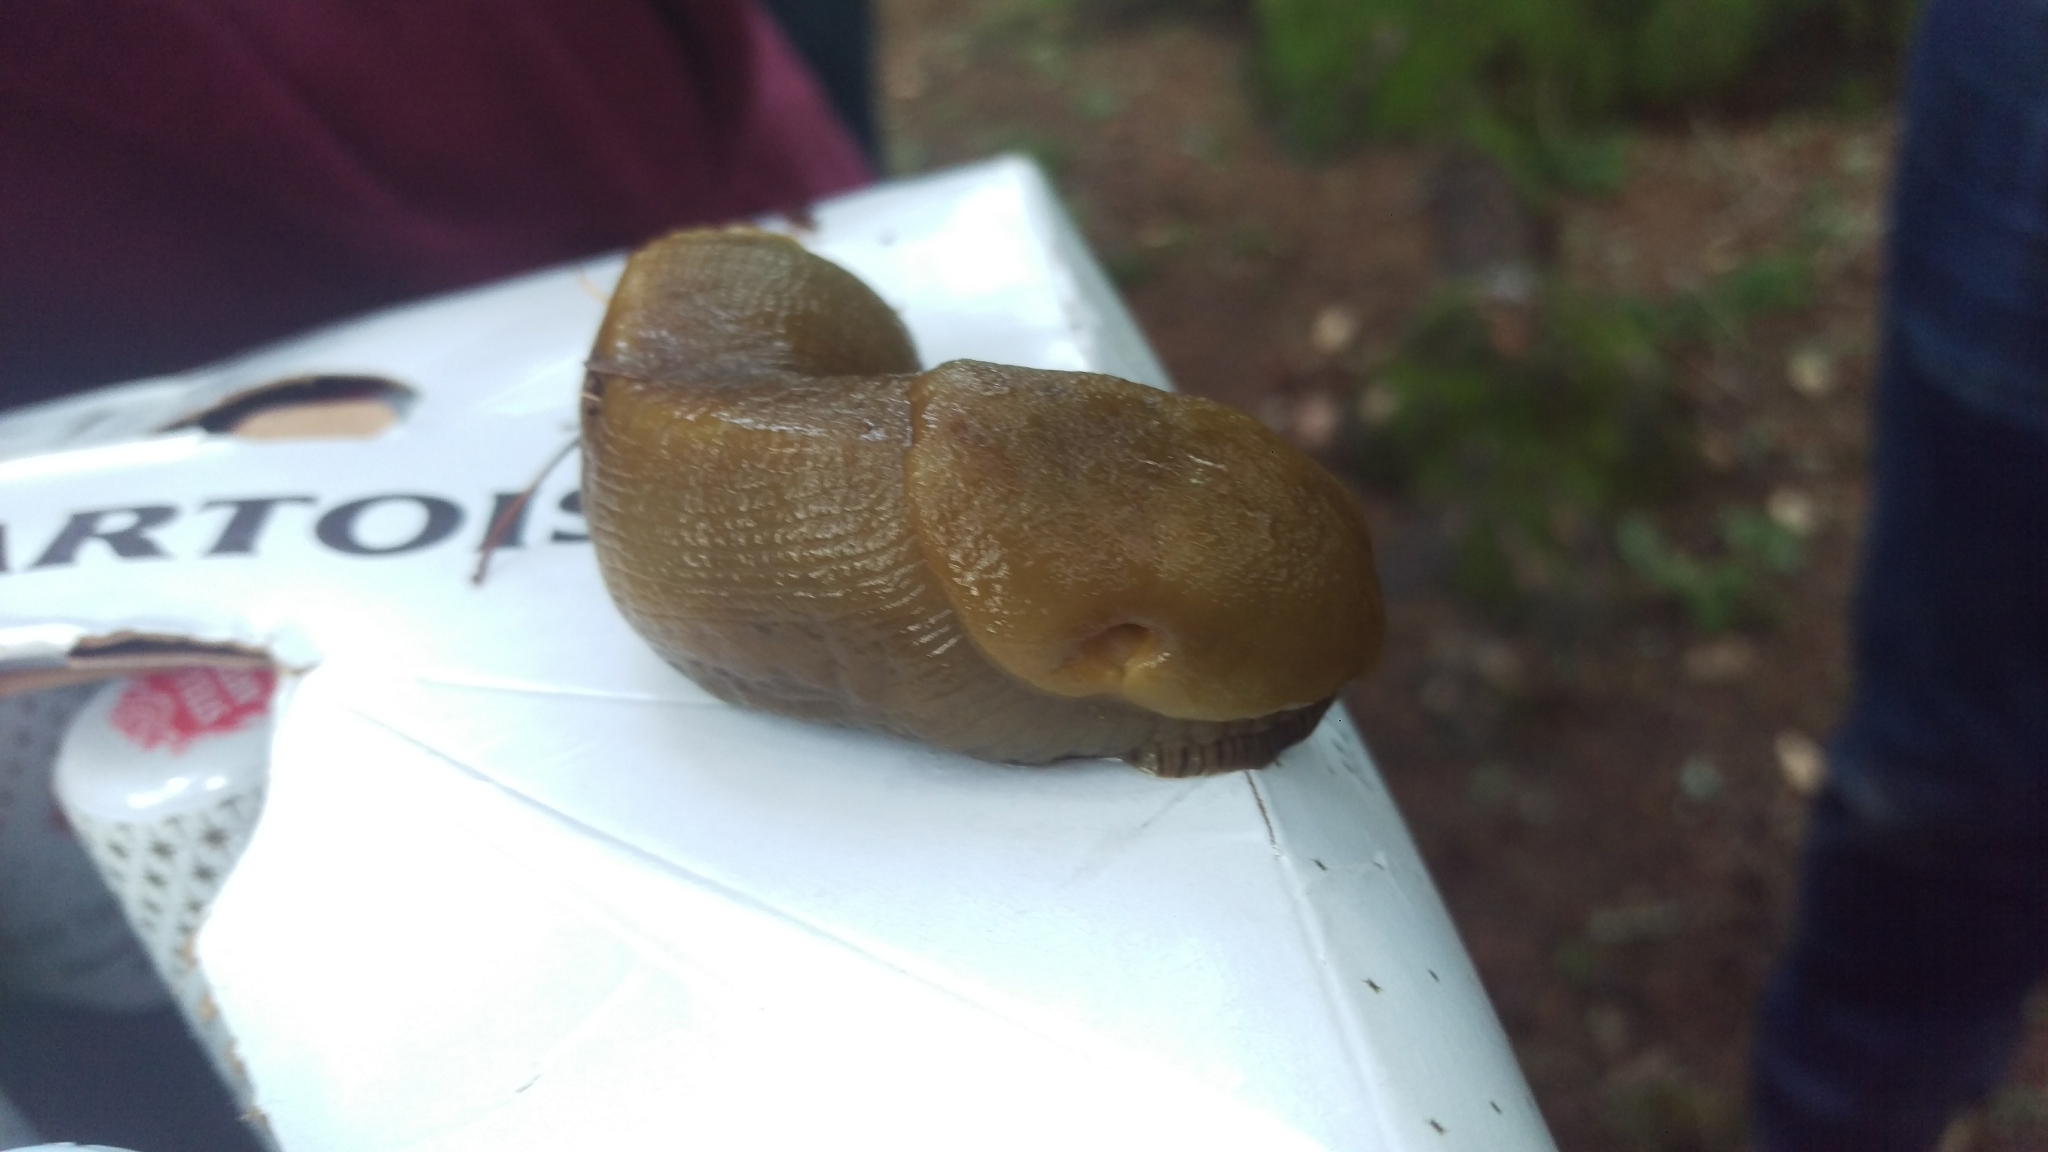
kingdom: Animalia
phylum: Mollusca
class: Gastropoda
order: Stylommatophora
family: Ariolimacidae
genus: Ariolimax
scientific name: Ariolimax buttoni
